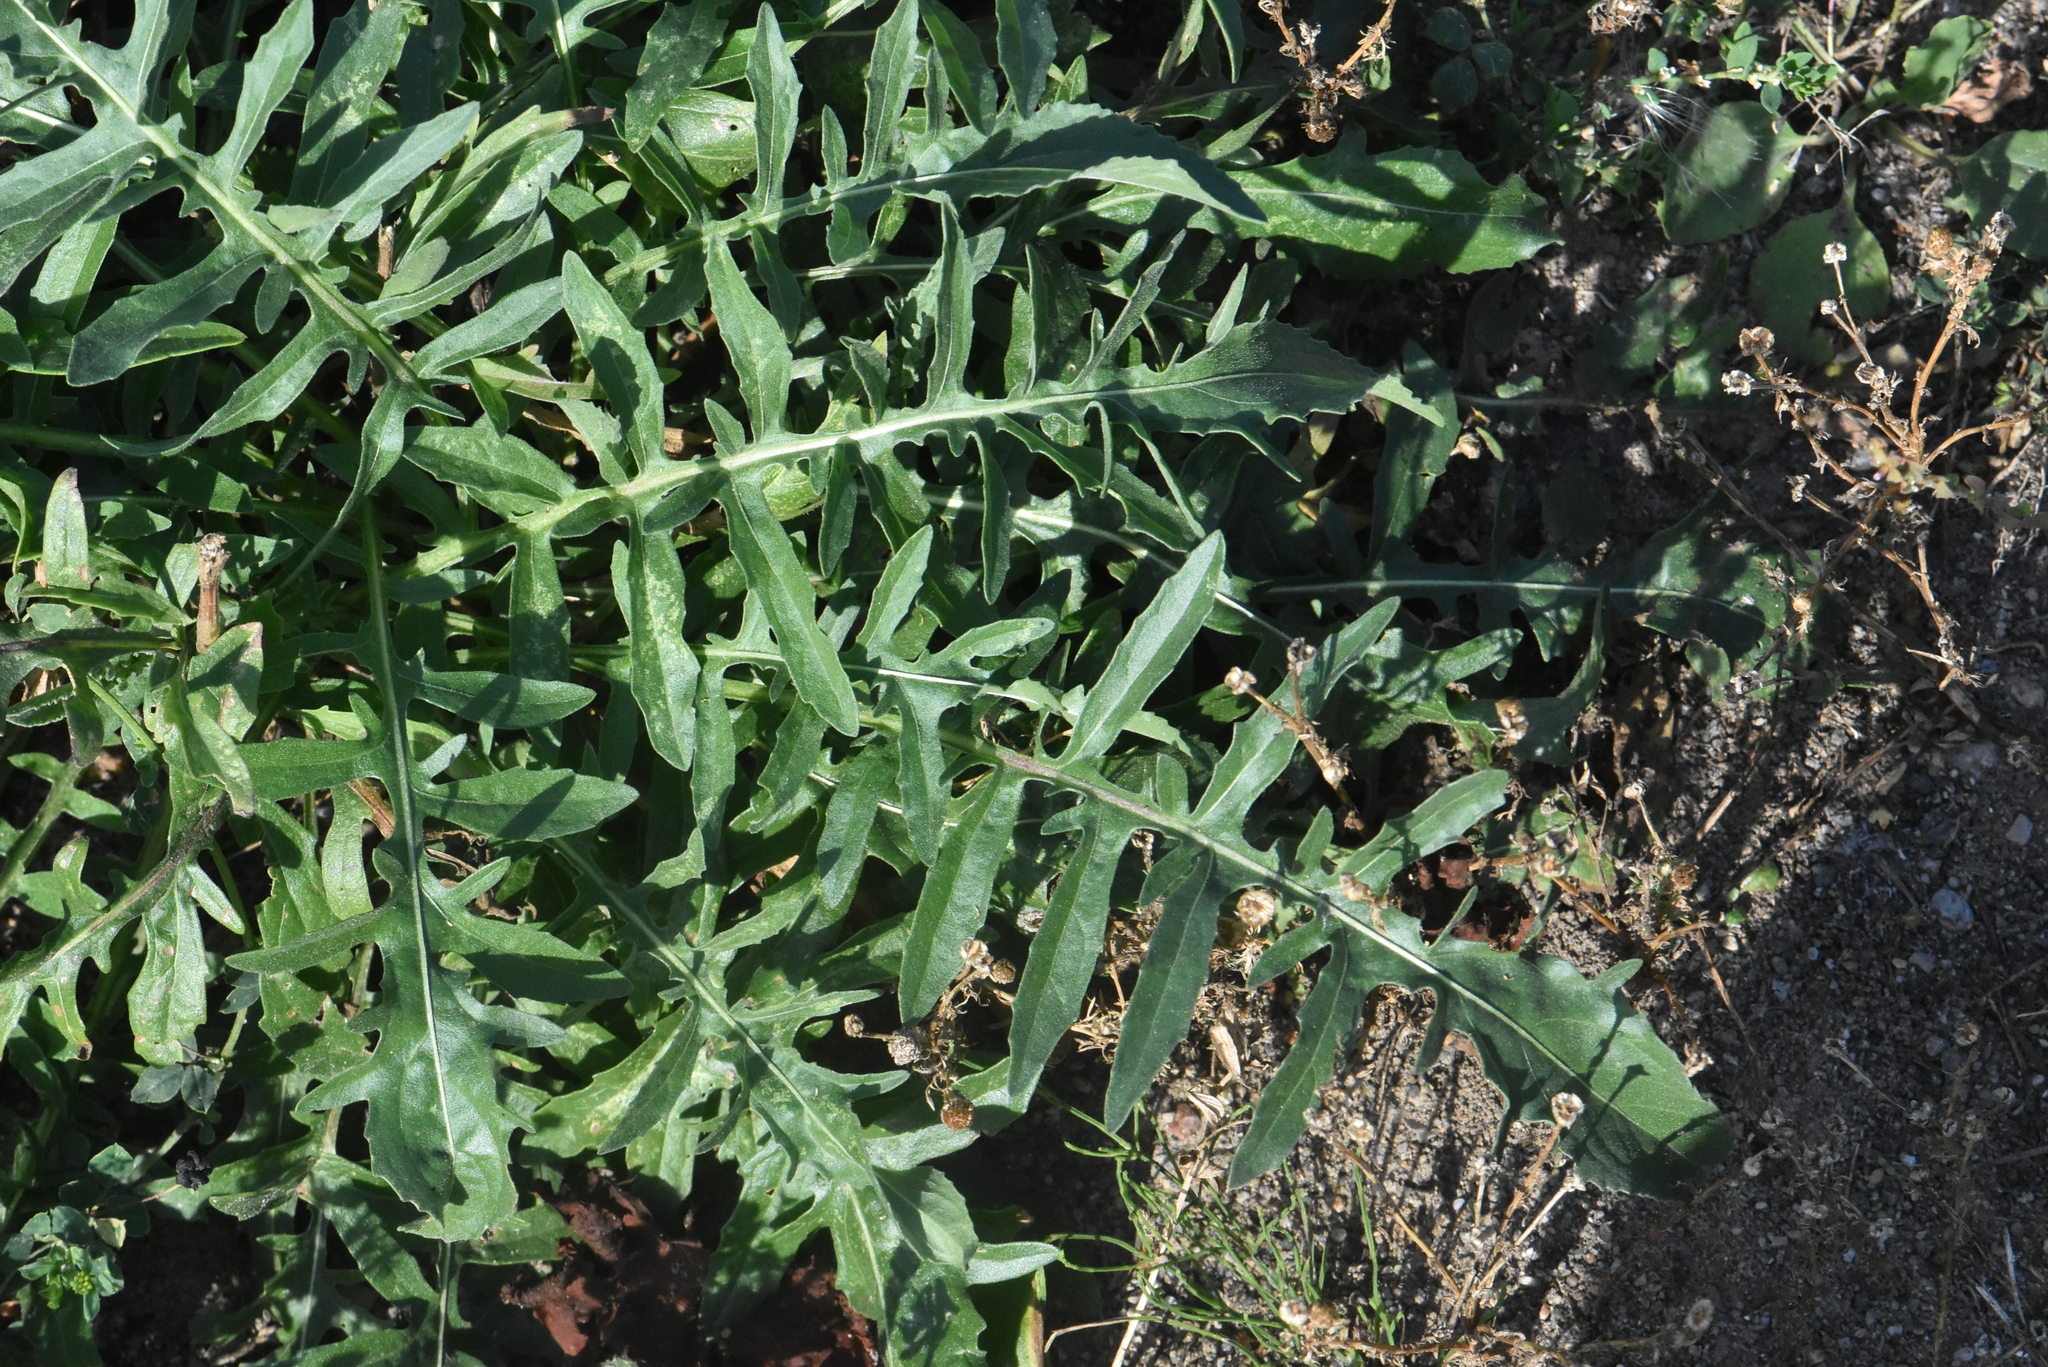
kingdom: Plantae
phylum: Tracheophyta
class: Magnoliopsida
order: Asterales
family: Asteraceae
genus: Centaurea
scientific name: Centaurea scabiosa
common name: Greater knapweed
